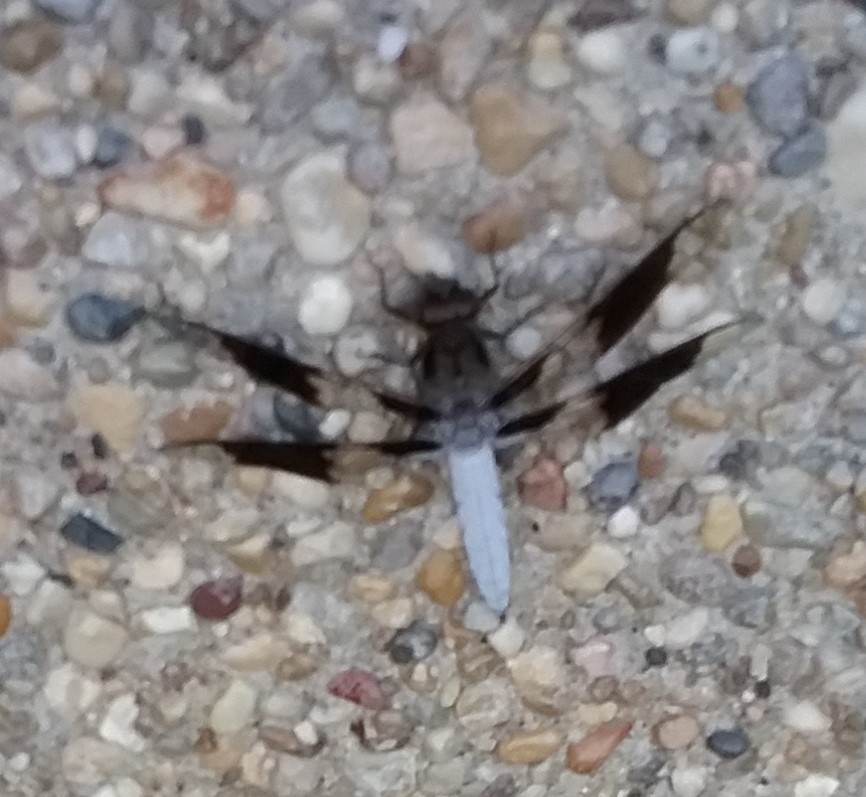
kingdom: Animalia
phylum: Arthropoda
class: Insecta
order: Odonata
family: Libellulidae
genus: Plathemis
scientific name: Plathemis lydia
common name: Common whitetail
